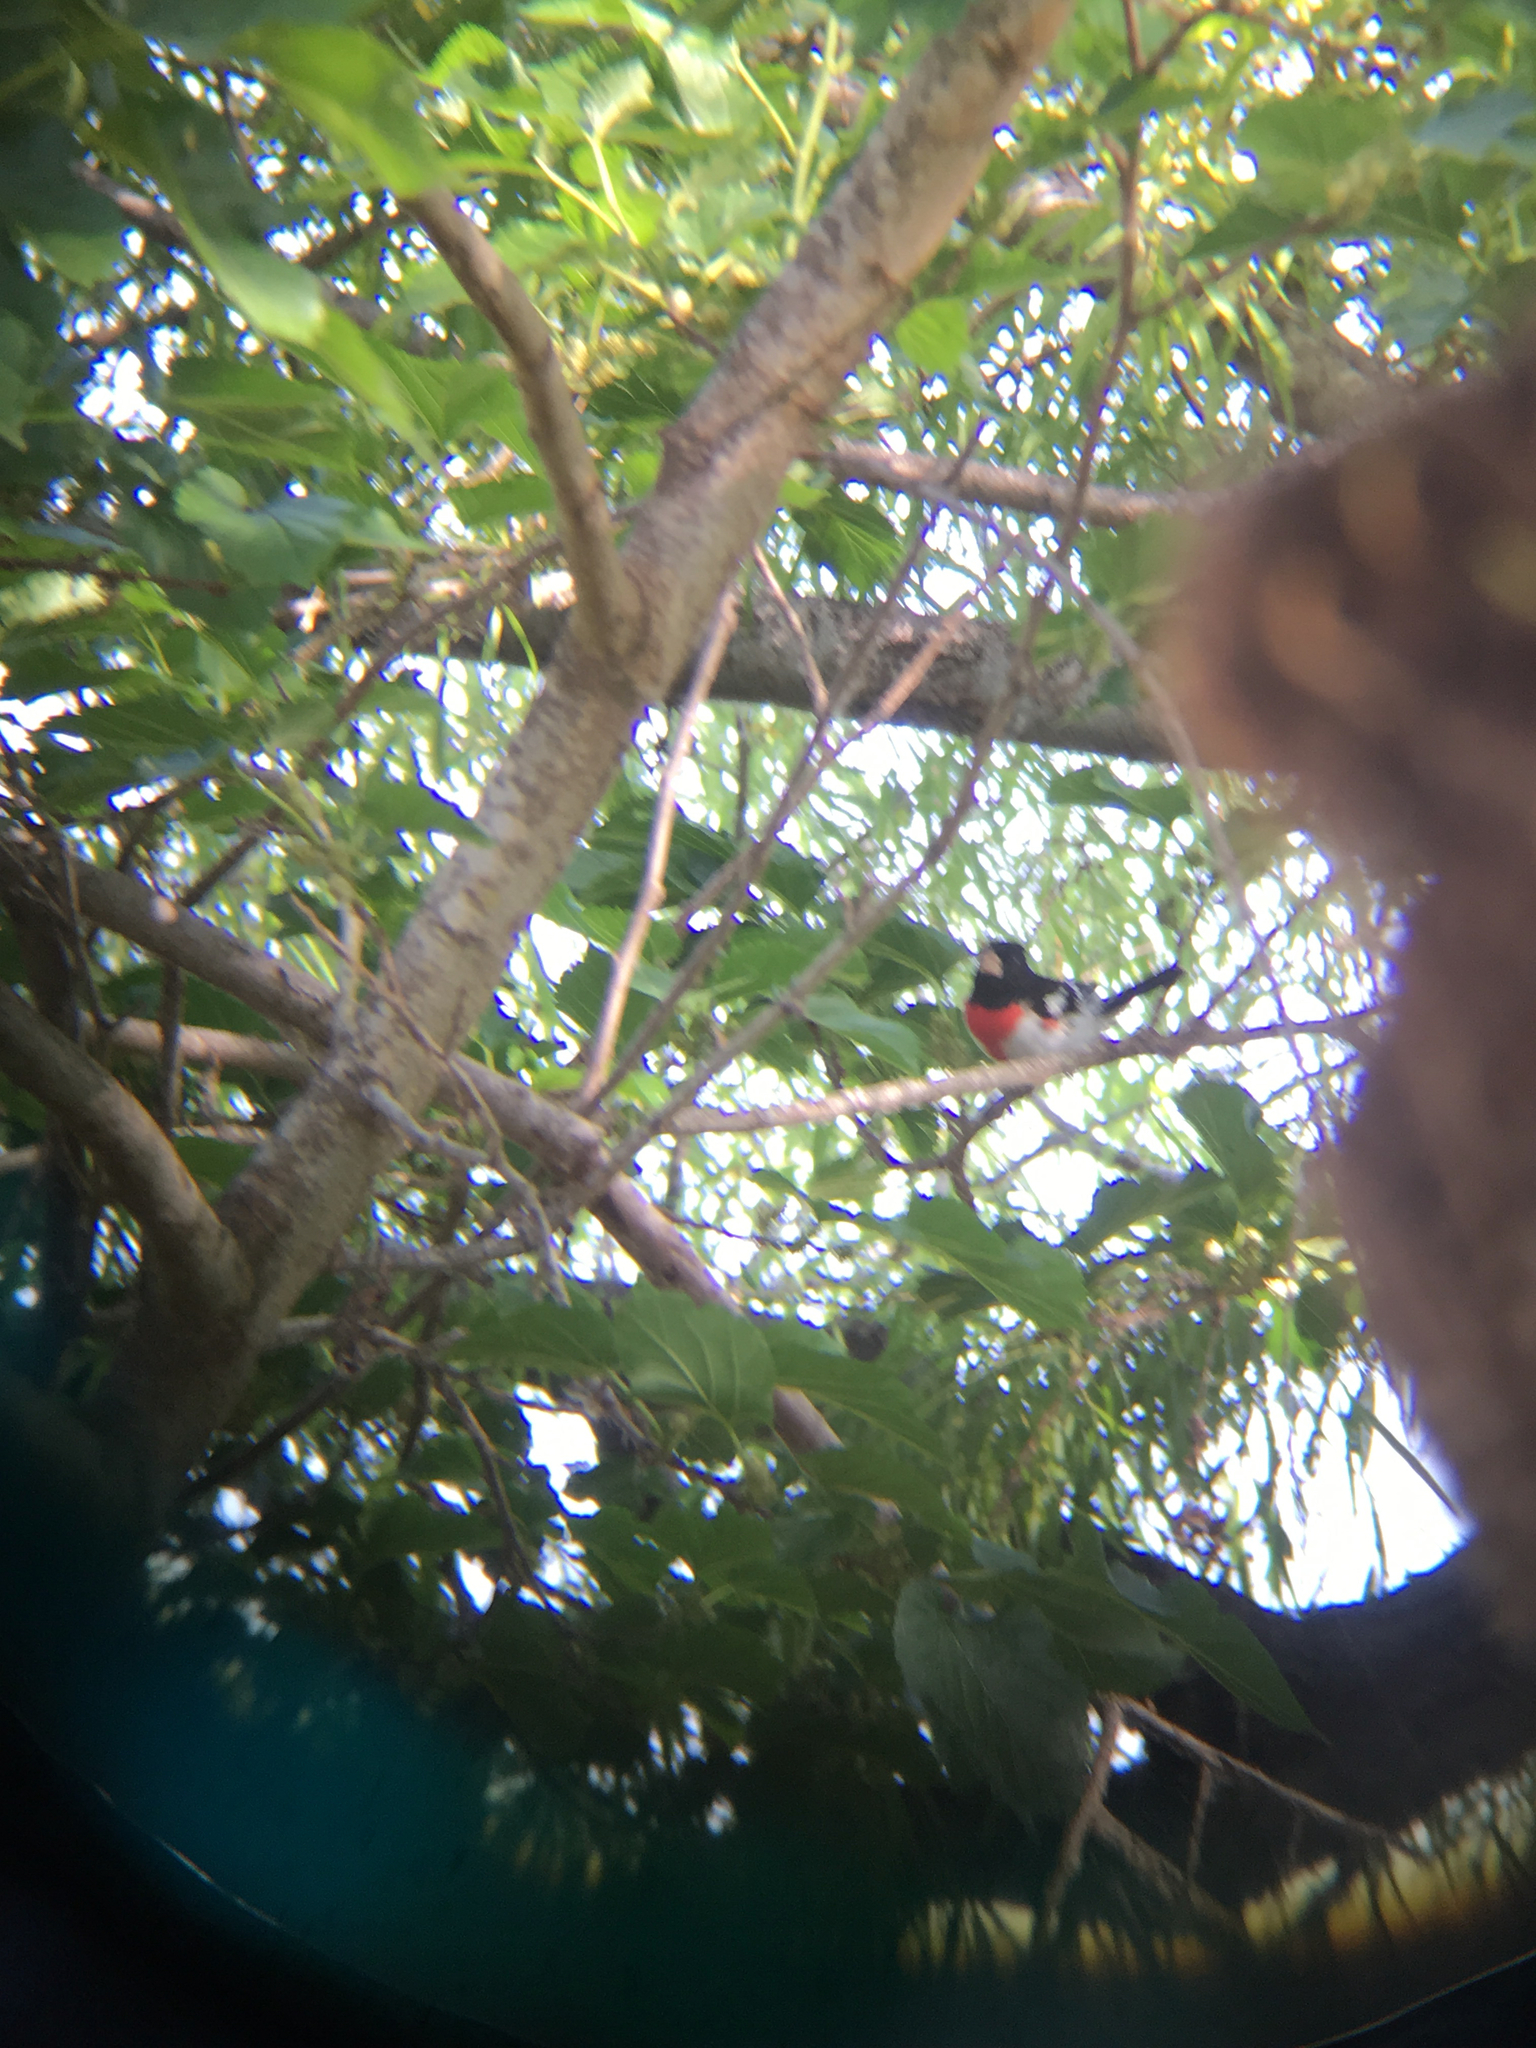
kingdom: Animalia
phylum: Chordata
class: Aves
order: Passeriformes
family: Cardinalidae
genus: Pheucticus
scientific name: Pheucticus ludovicianus
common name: Rose-breasted grosbeak
